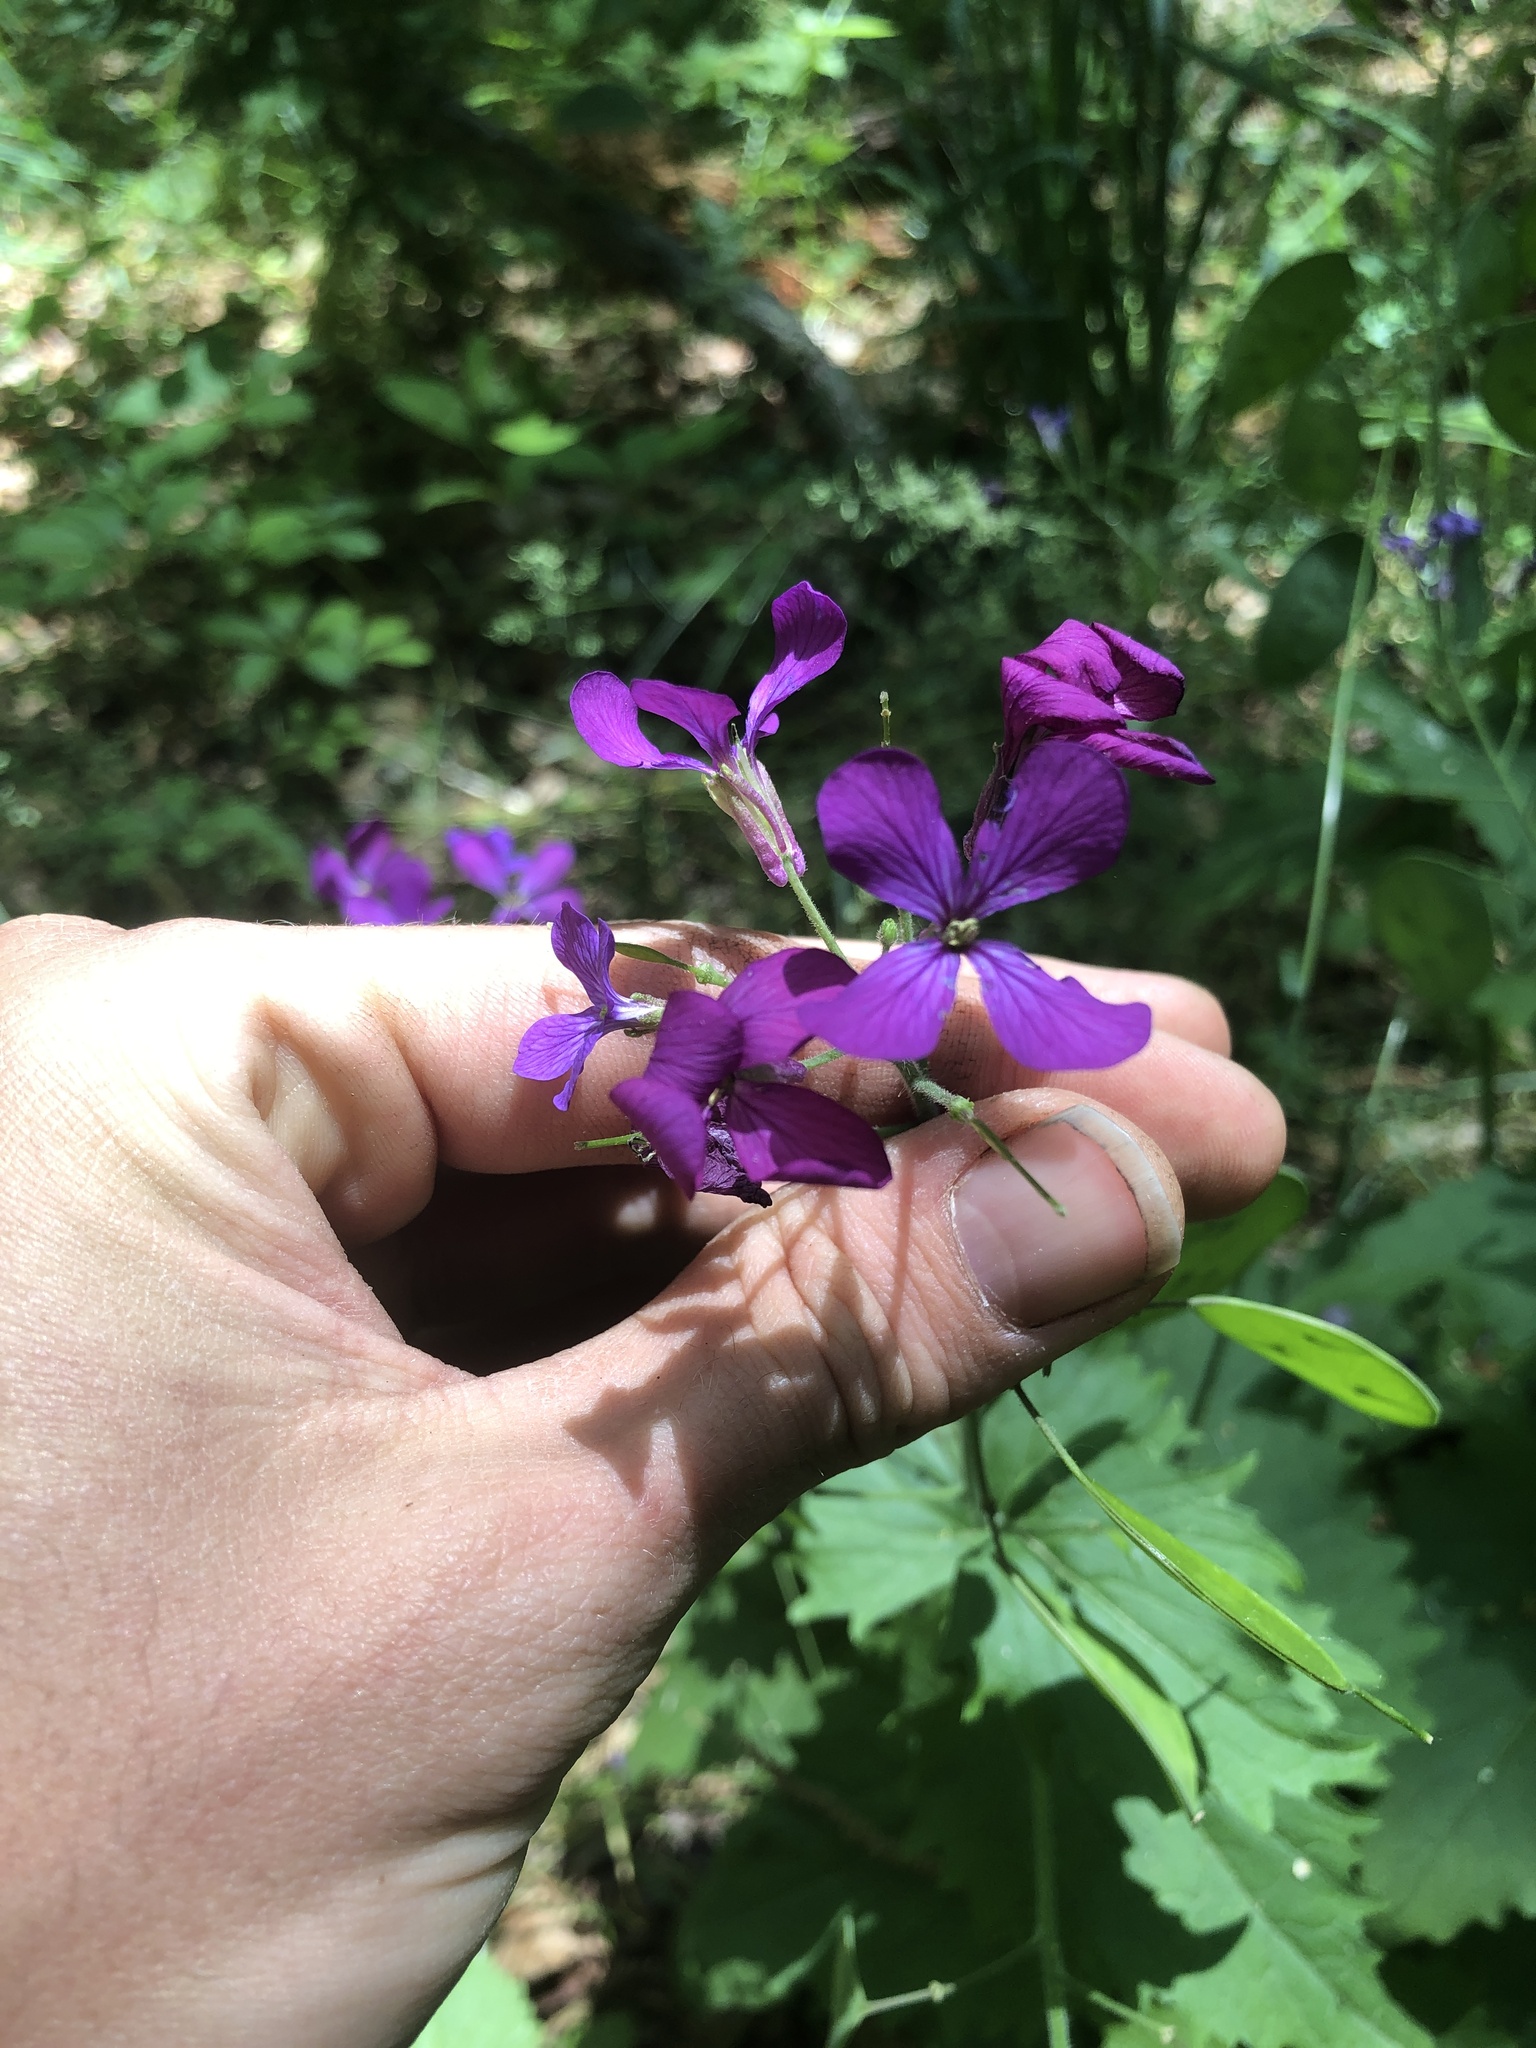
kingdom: Plantae
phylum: Tracheophyta
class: Magnoliopsida
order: Brassicales
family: Brassicaceae
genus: Lunaria
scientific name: Lunaria annua
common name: Honesty
